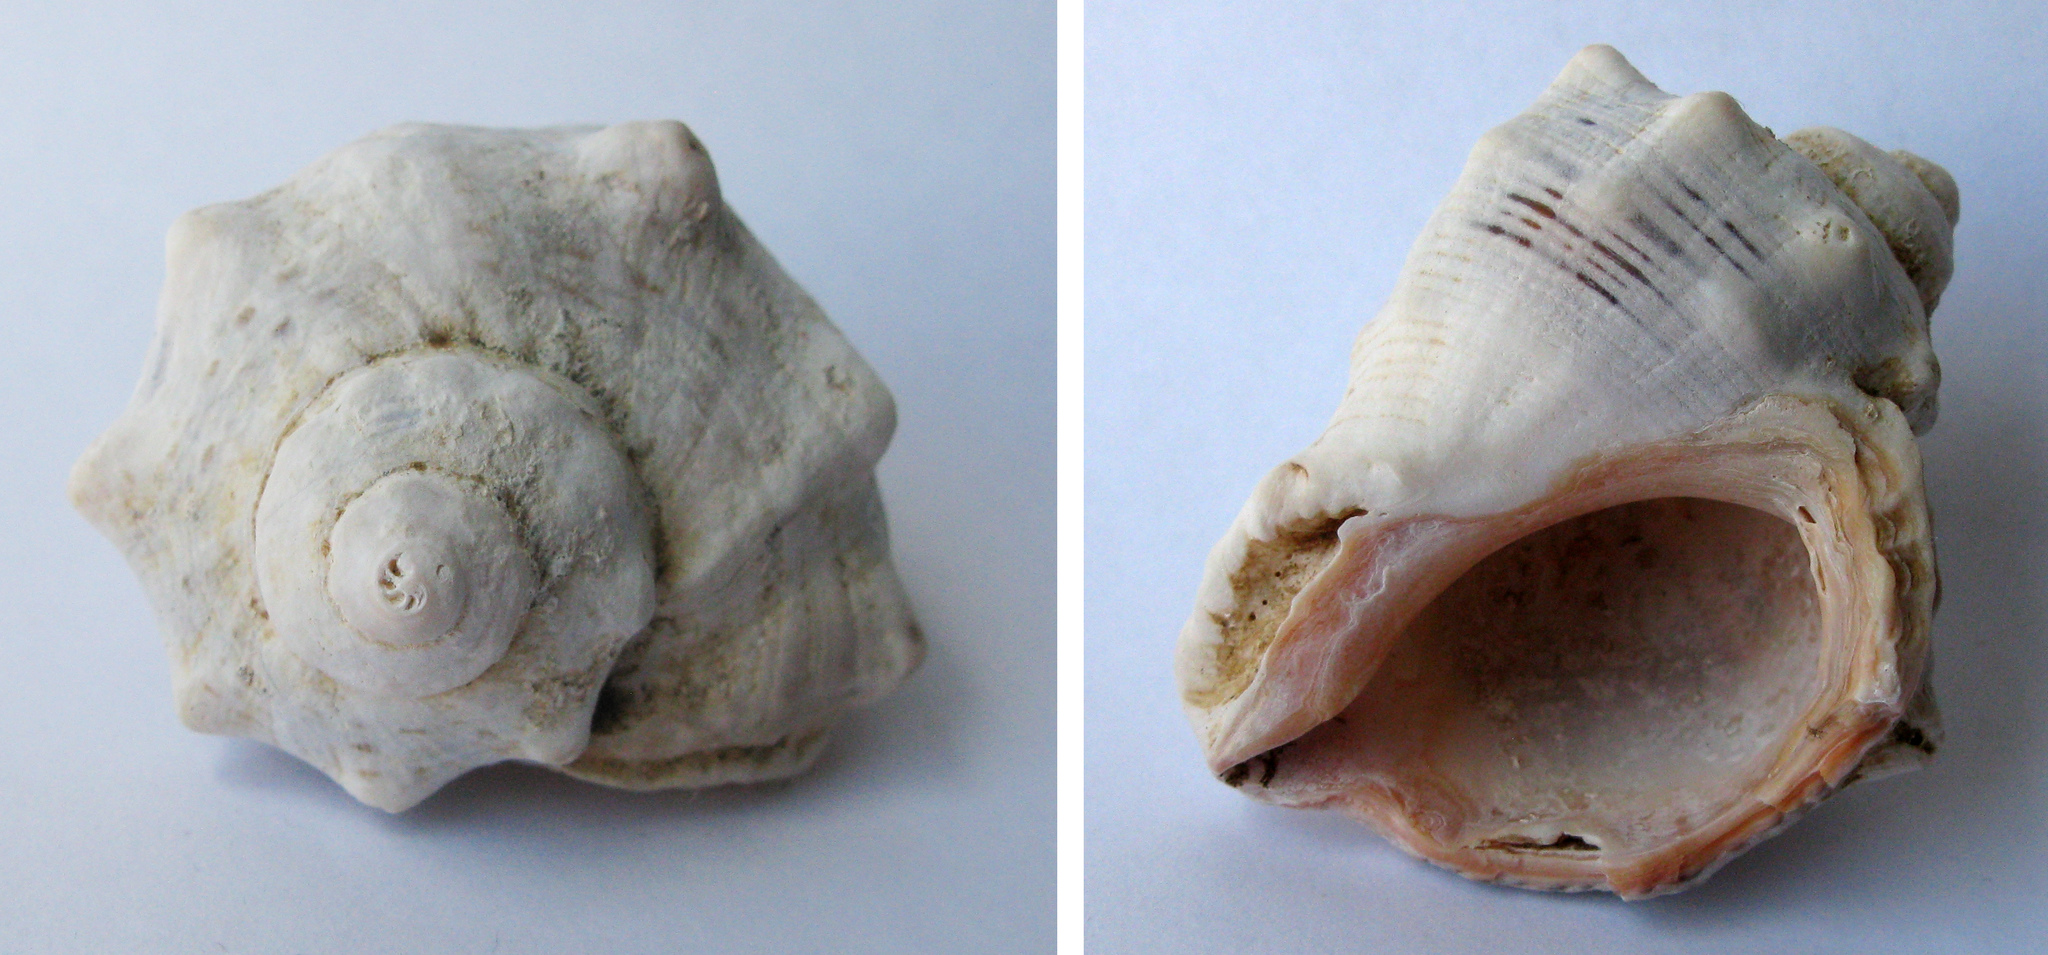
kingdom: Animalia
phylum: Mollusca
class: Gastropoda
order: Neogastropoda
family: Muricidae
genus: Rapana
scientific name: Rapana venosa
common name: Veined rapa whelk
